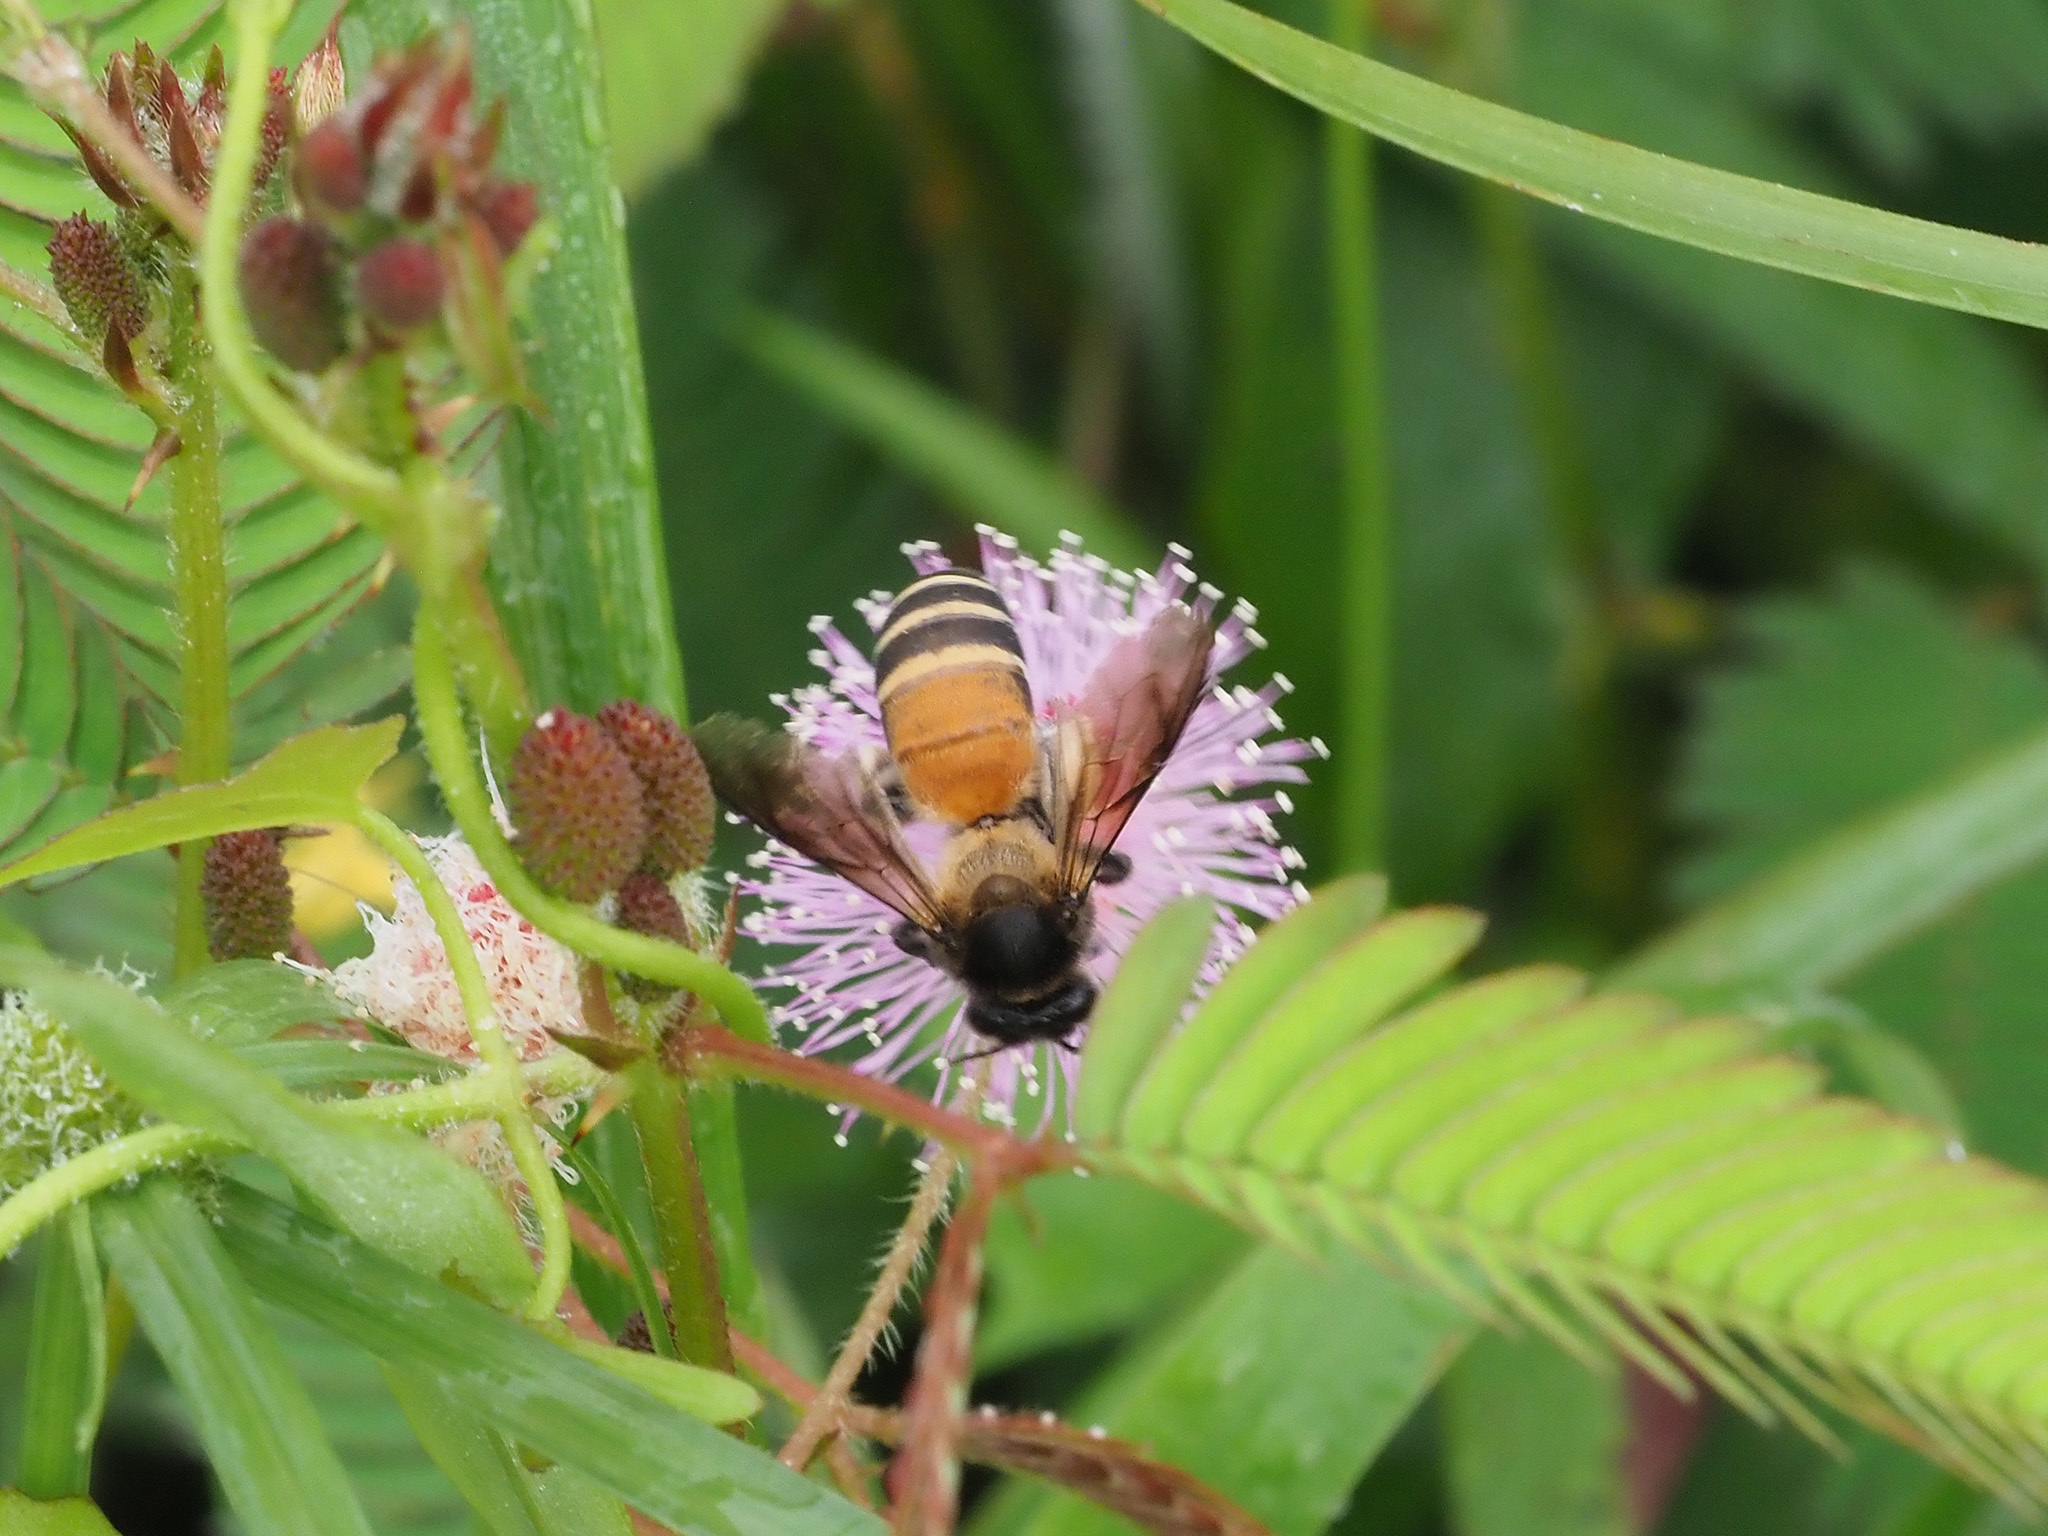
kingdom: Animalia
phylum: Arthropoda
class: Insecta
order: Hymenoptera
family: Apidae
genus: Apis
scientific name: Apis dorsata
